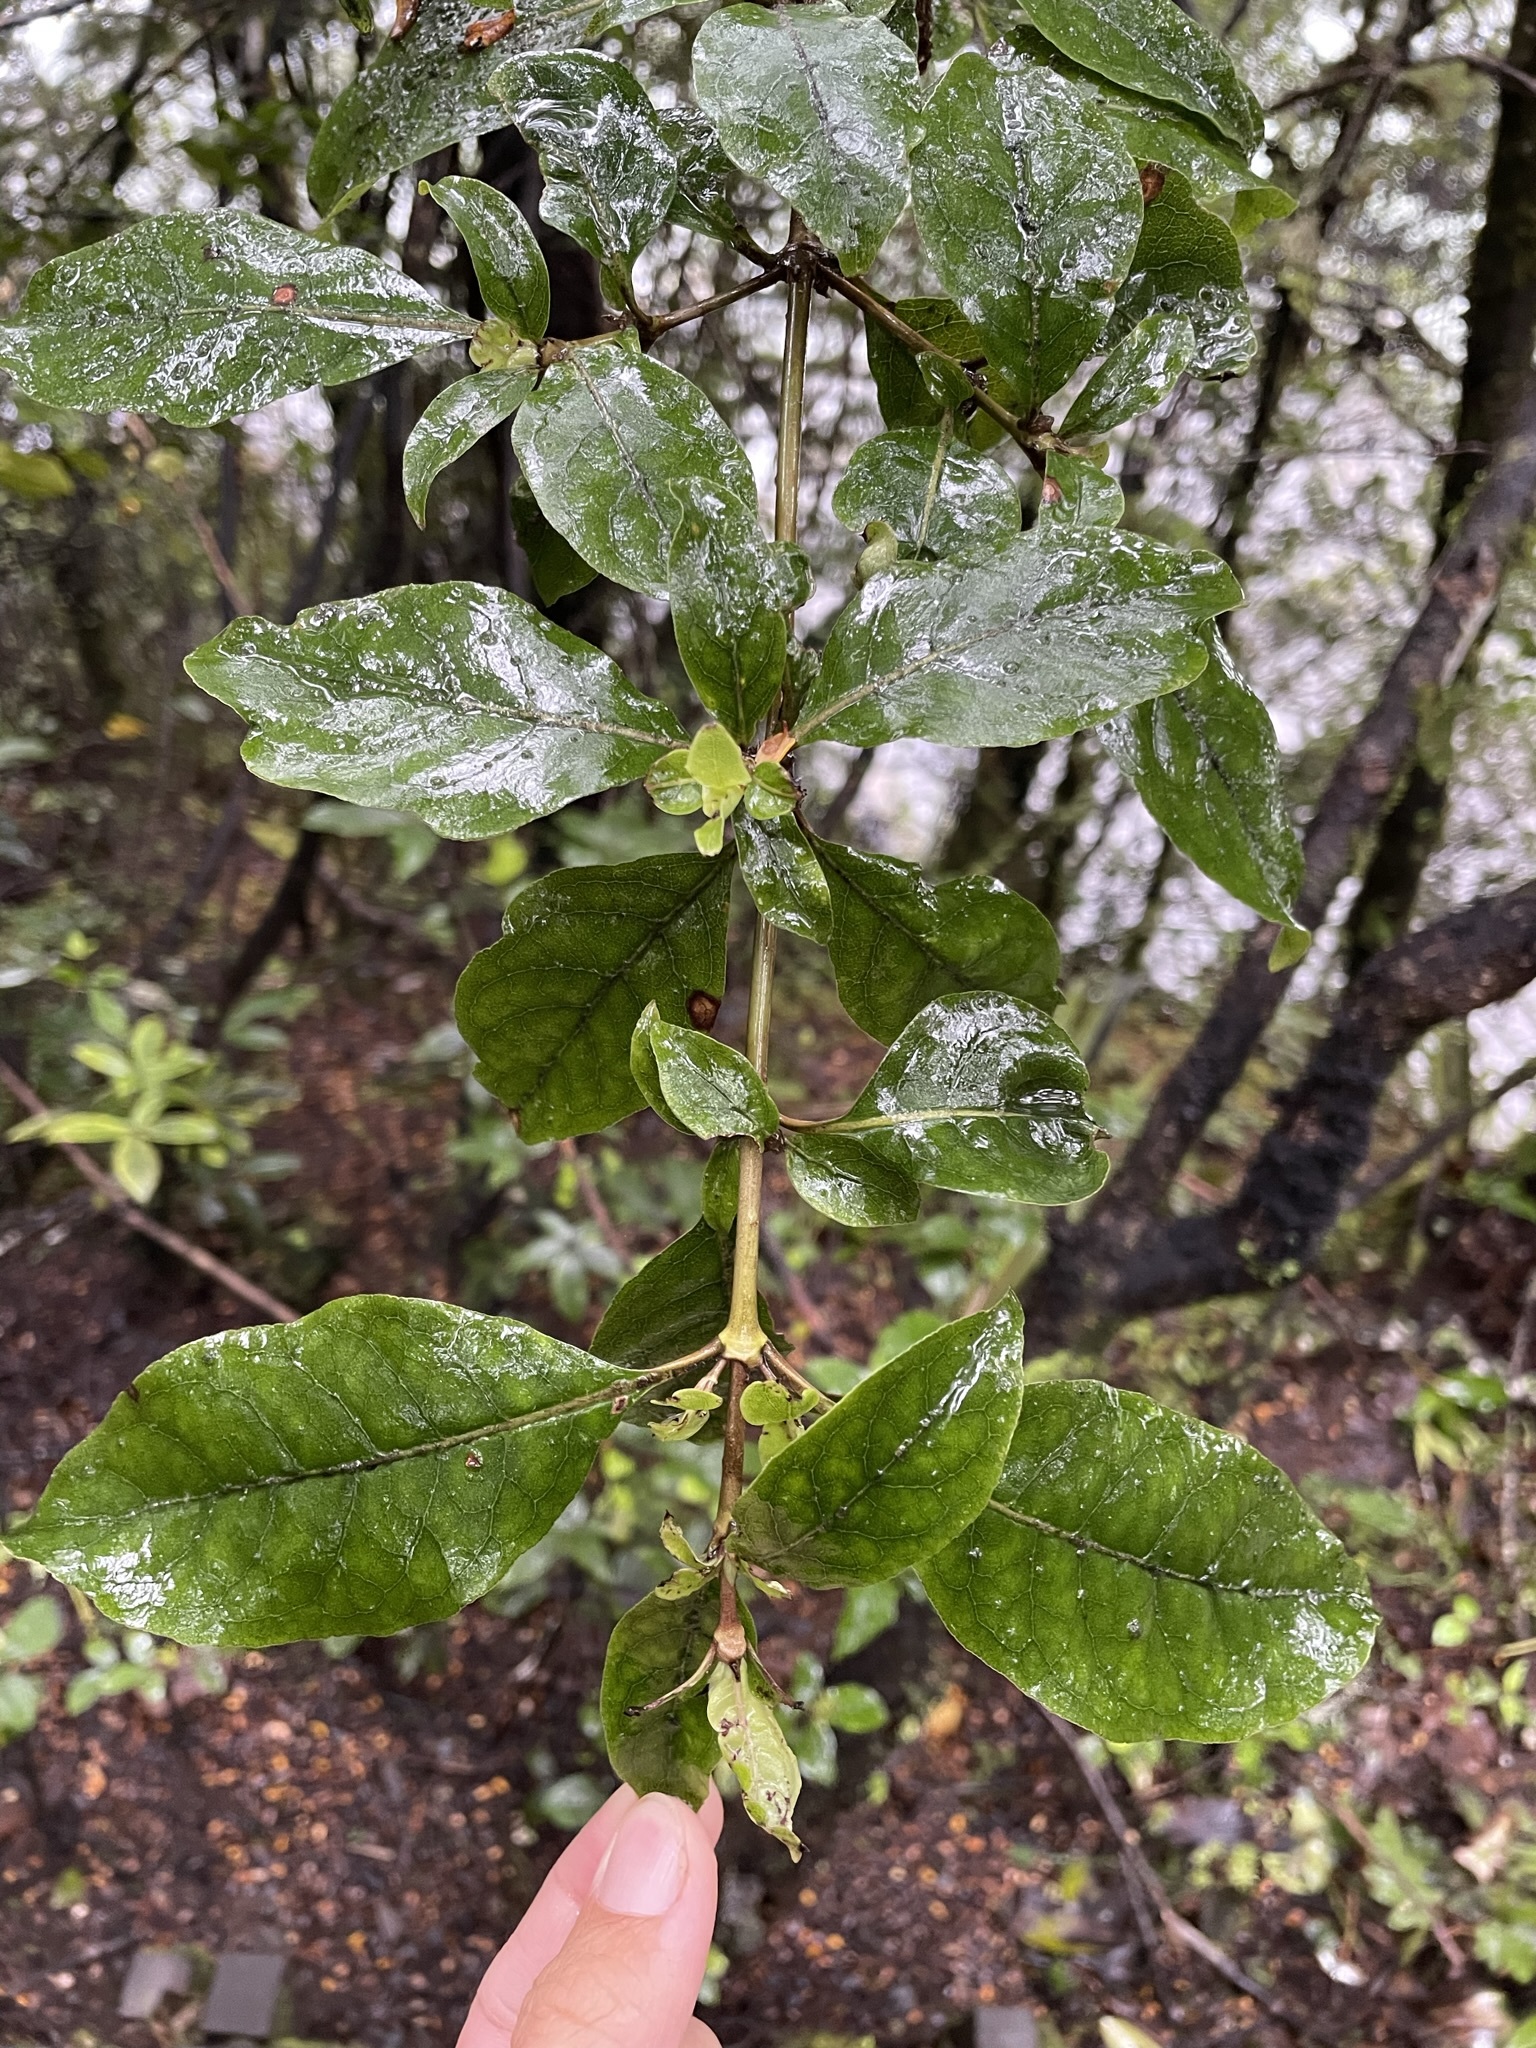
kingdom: Plantae
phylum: Tracheophyta
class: Magnoliopsida
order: Gentianales
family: Rubiaceae
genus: Coprosma
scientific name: Coprosma tenuifolia
